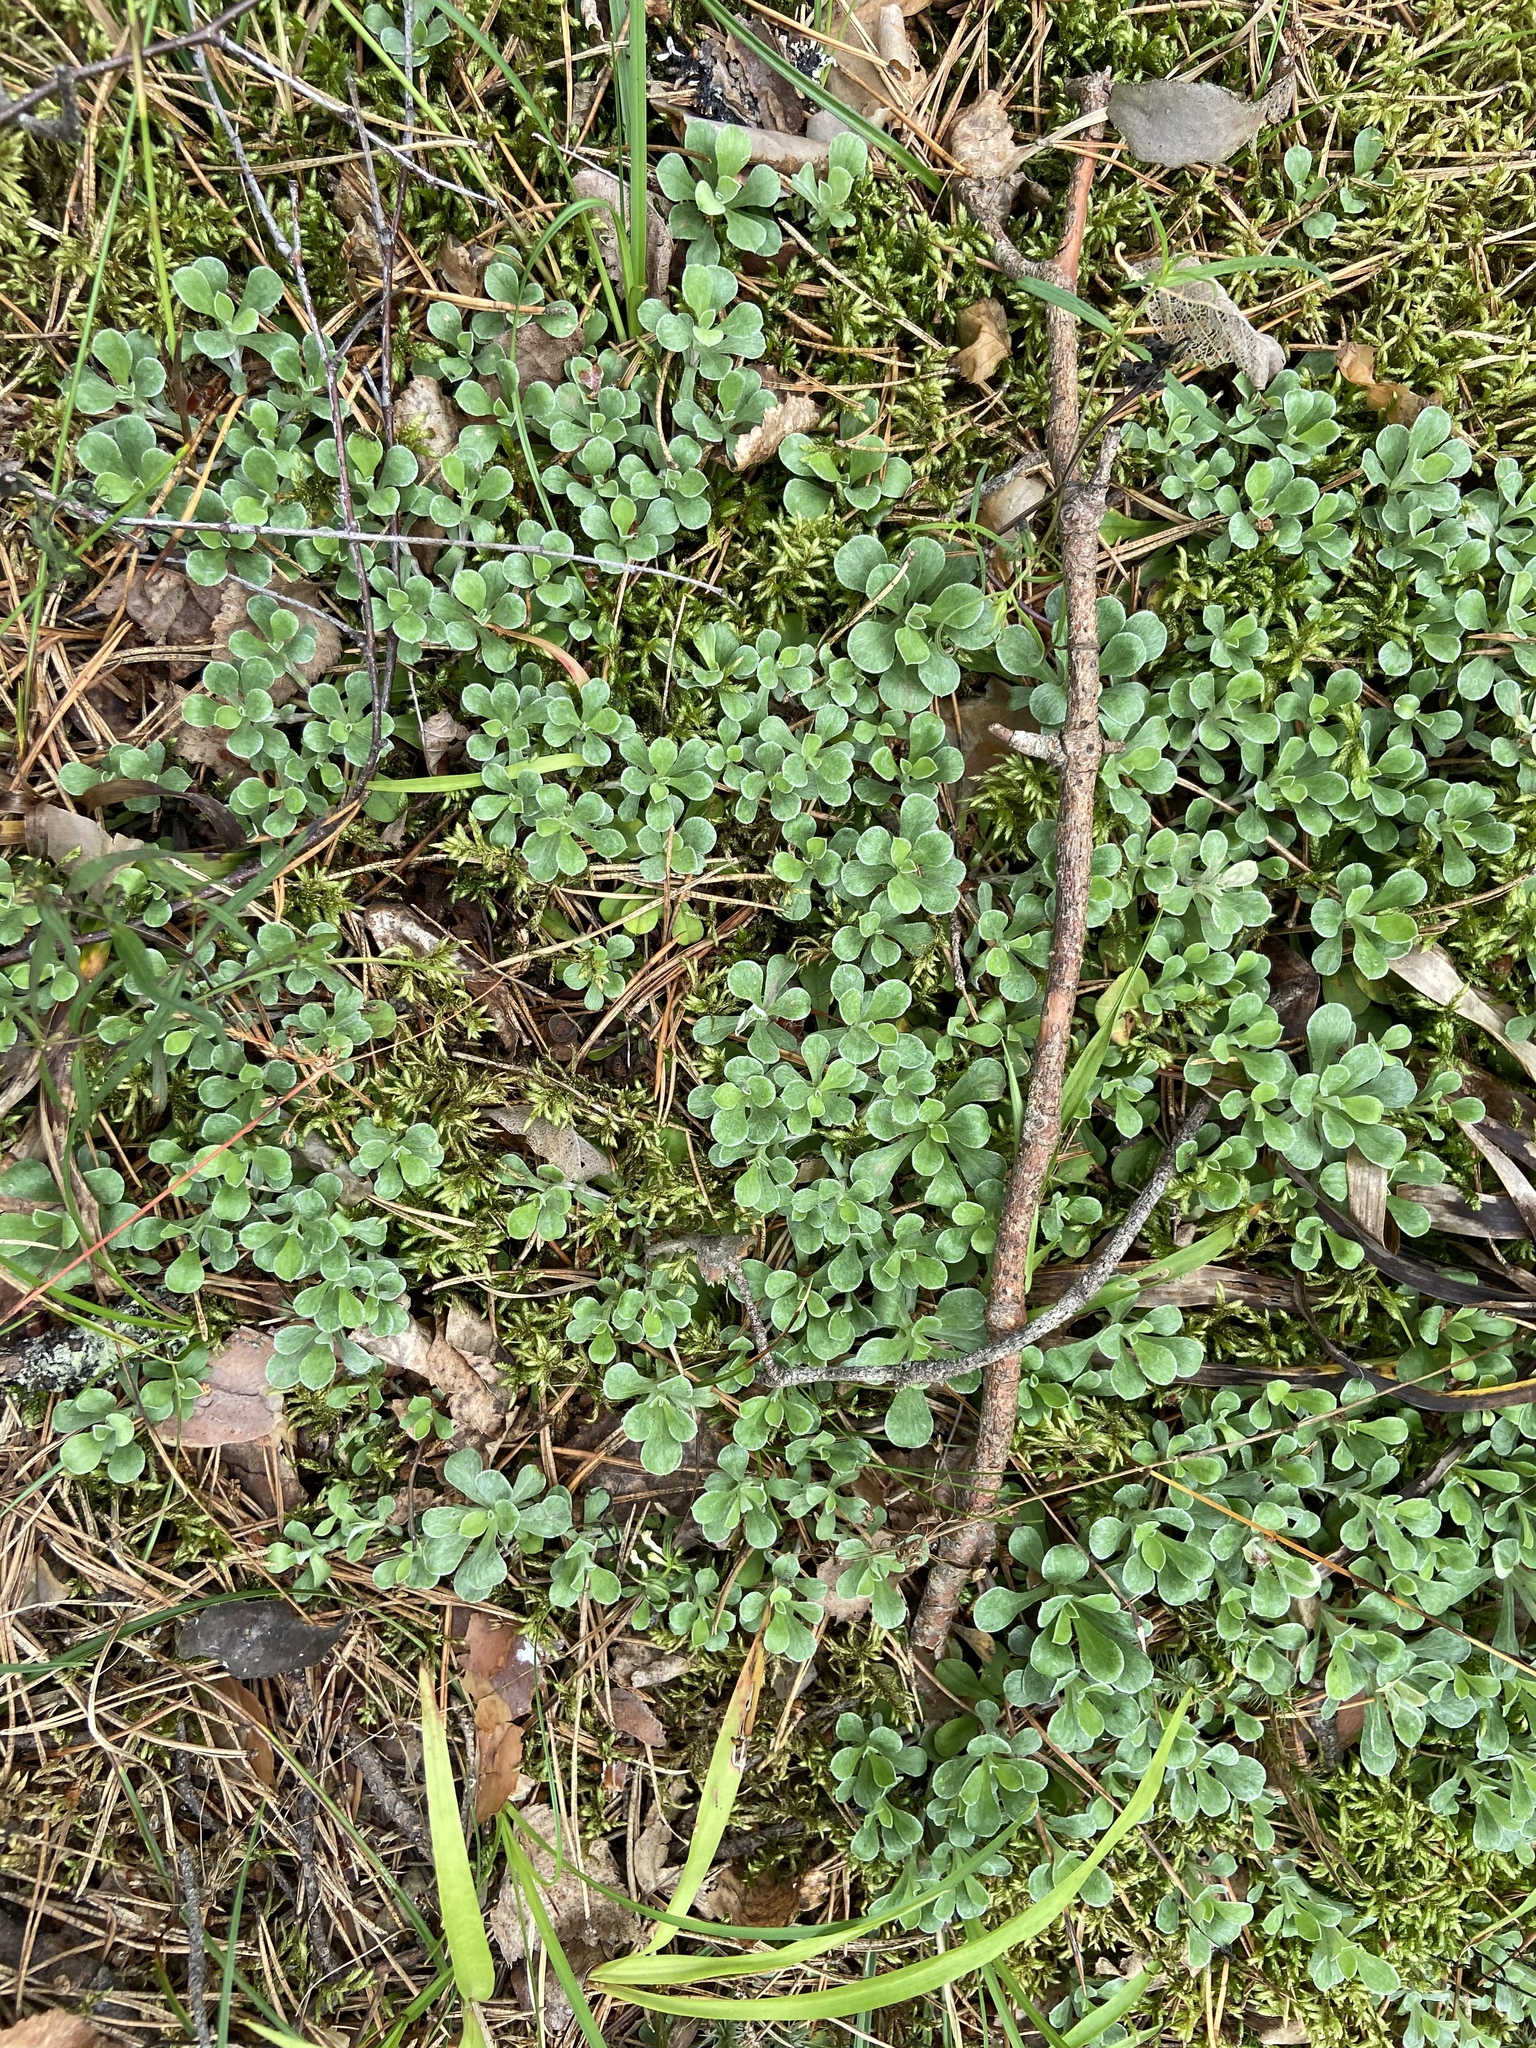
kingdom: Plantae
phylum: Tracheophyta
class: Magnoliopsida
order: Asterales
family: Asteraceae
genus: Antennaria
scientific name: Antennaria dioica
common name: Mountain everlasting
